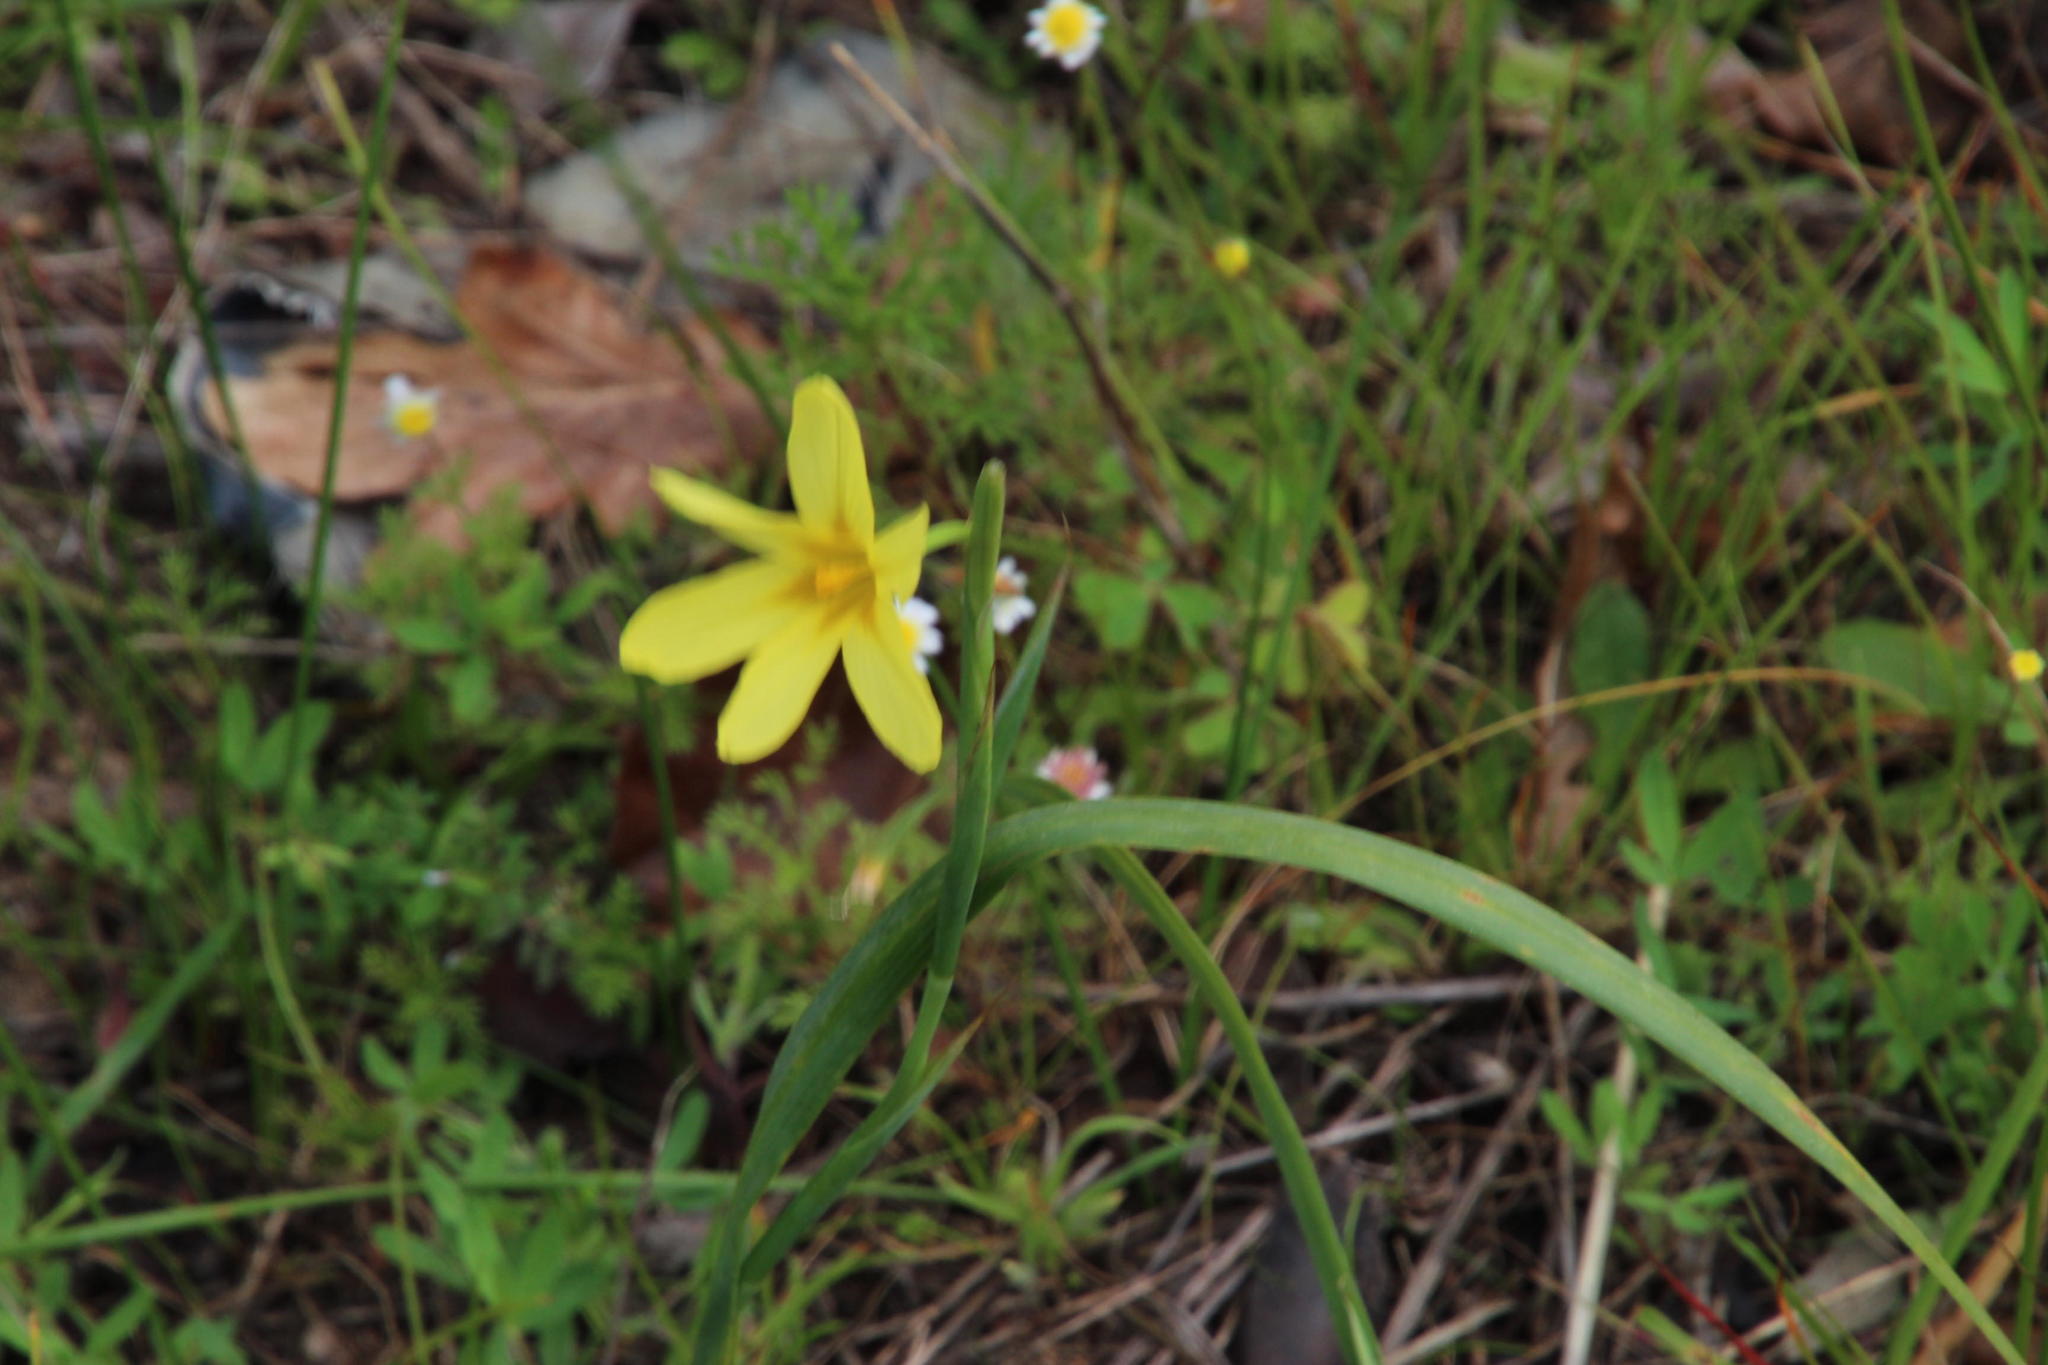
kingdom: Plantae
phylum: Tracheophyta
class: Liliopsida
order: Asparagales
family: Iridaceae
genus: Moraea
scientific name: Moraea collina
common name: Cape-tulip
